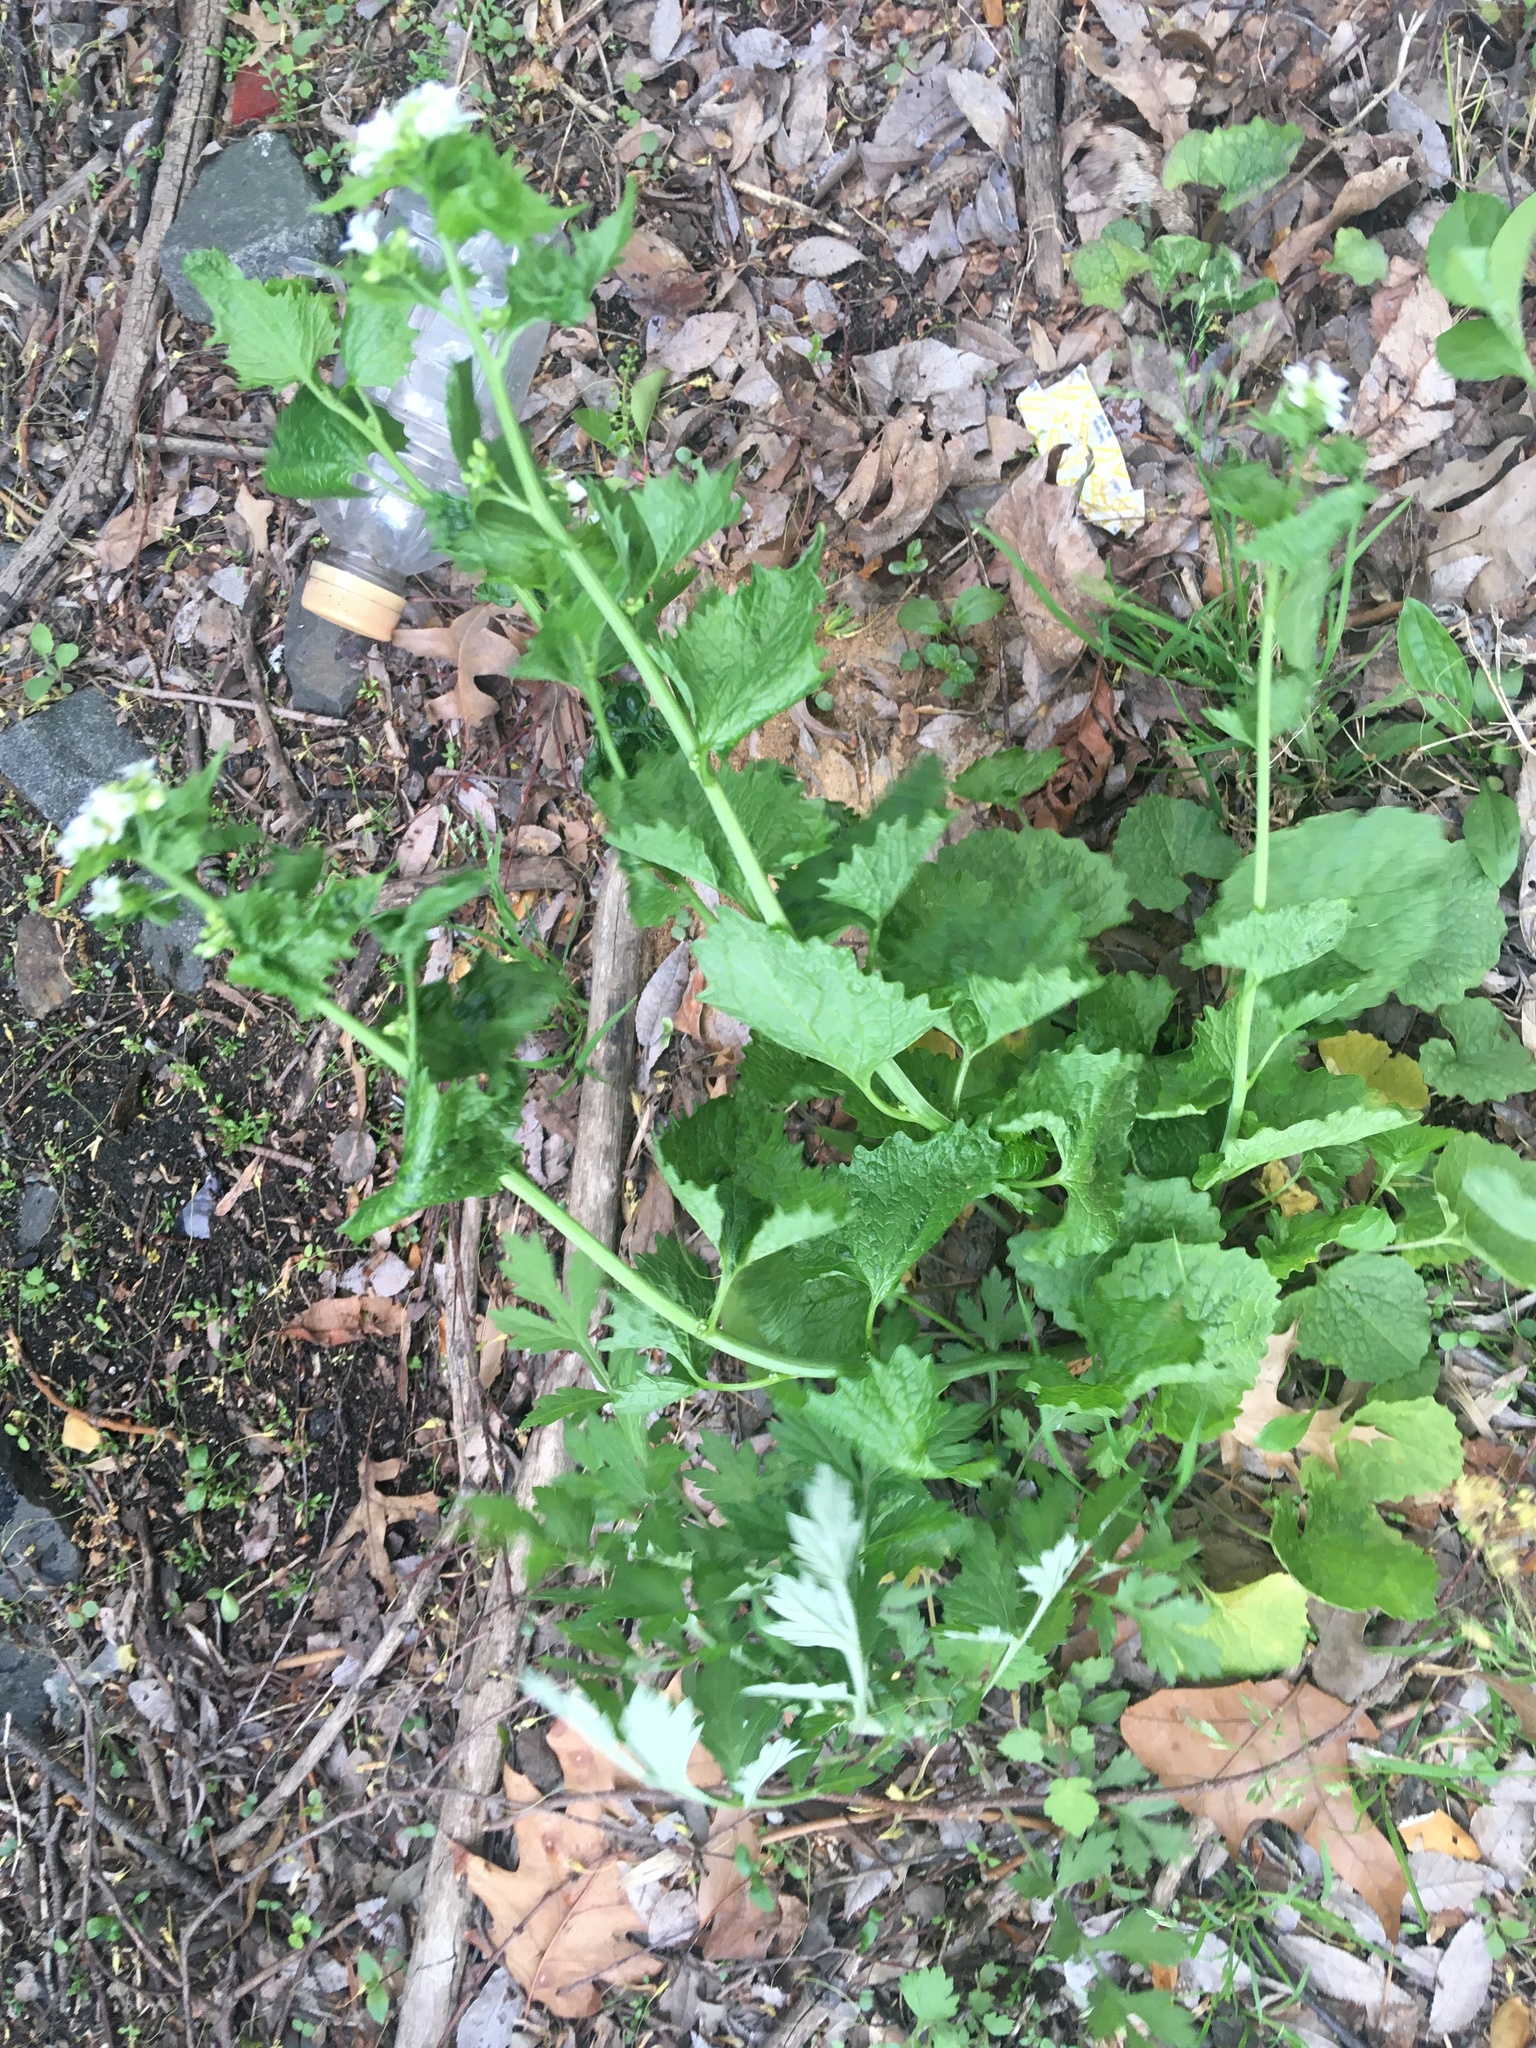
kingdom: Plantae
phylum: Tracheophyta
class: Magnoliopsida
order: Brassicales
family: Brassicaceae
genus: Alliaria
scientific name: Alliaria petiolata
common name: Garlic mustard
